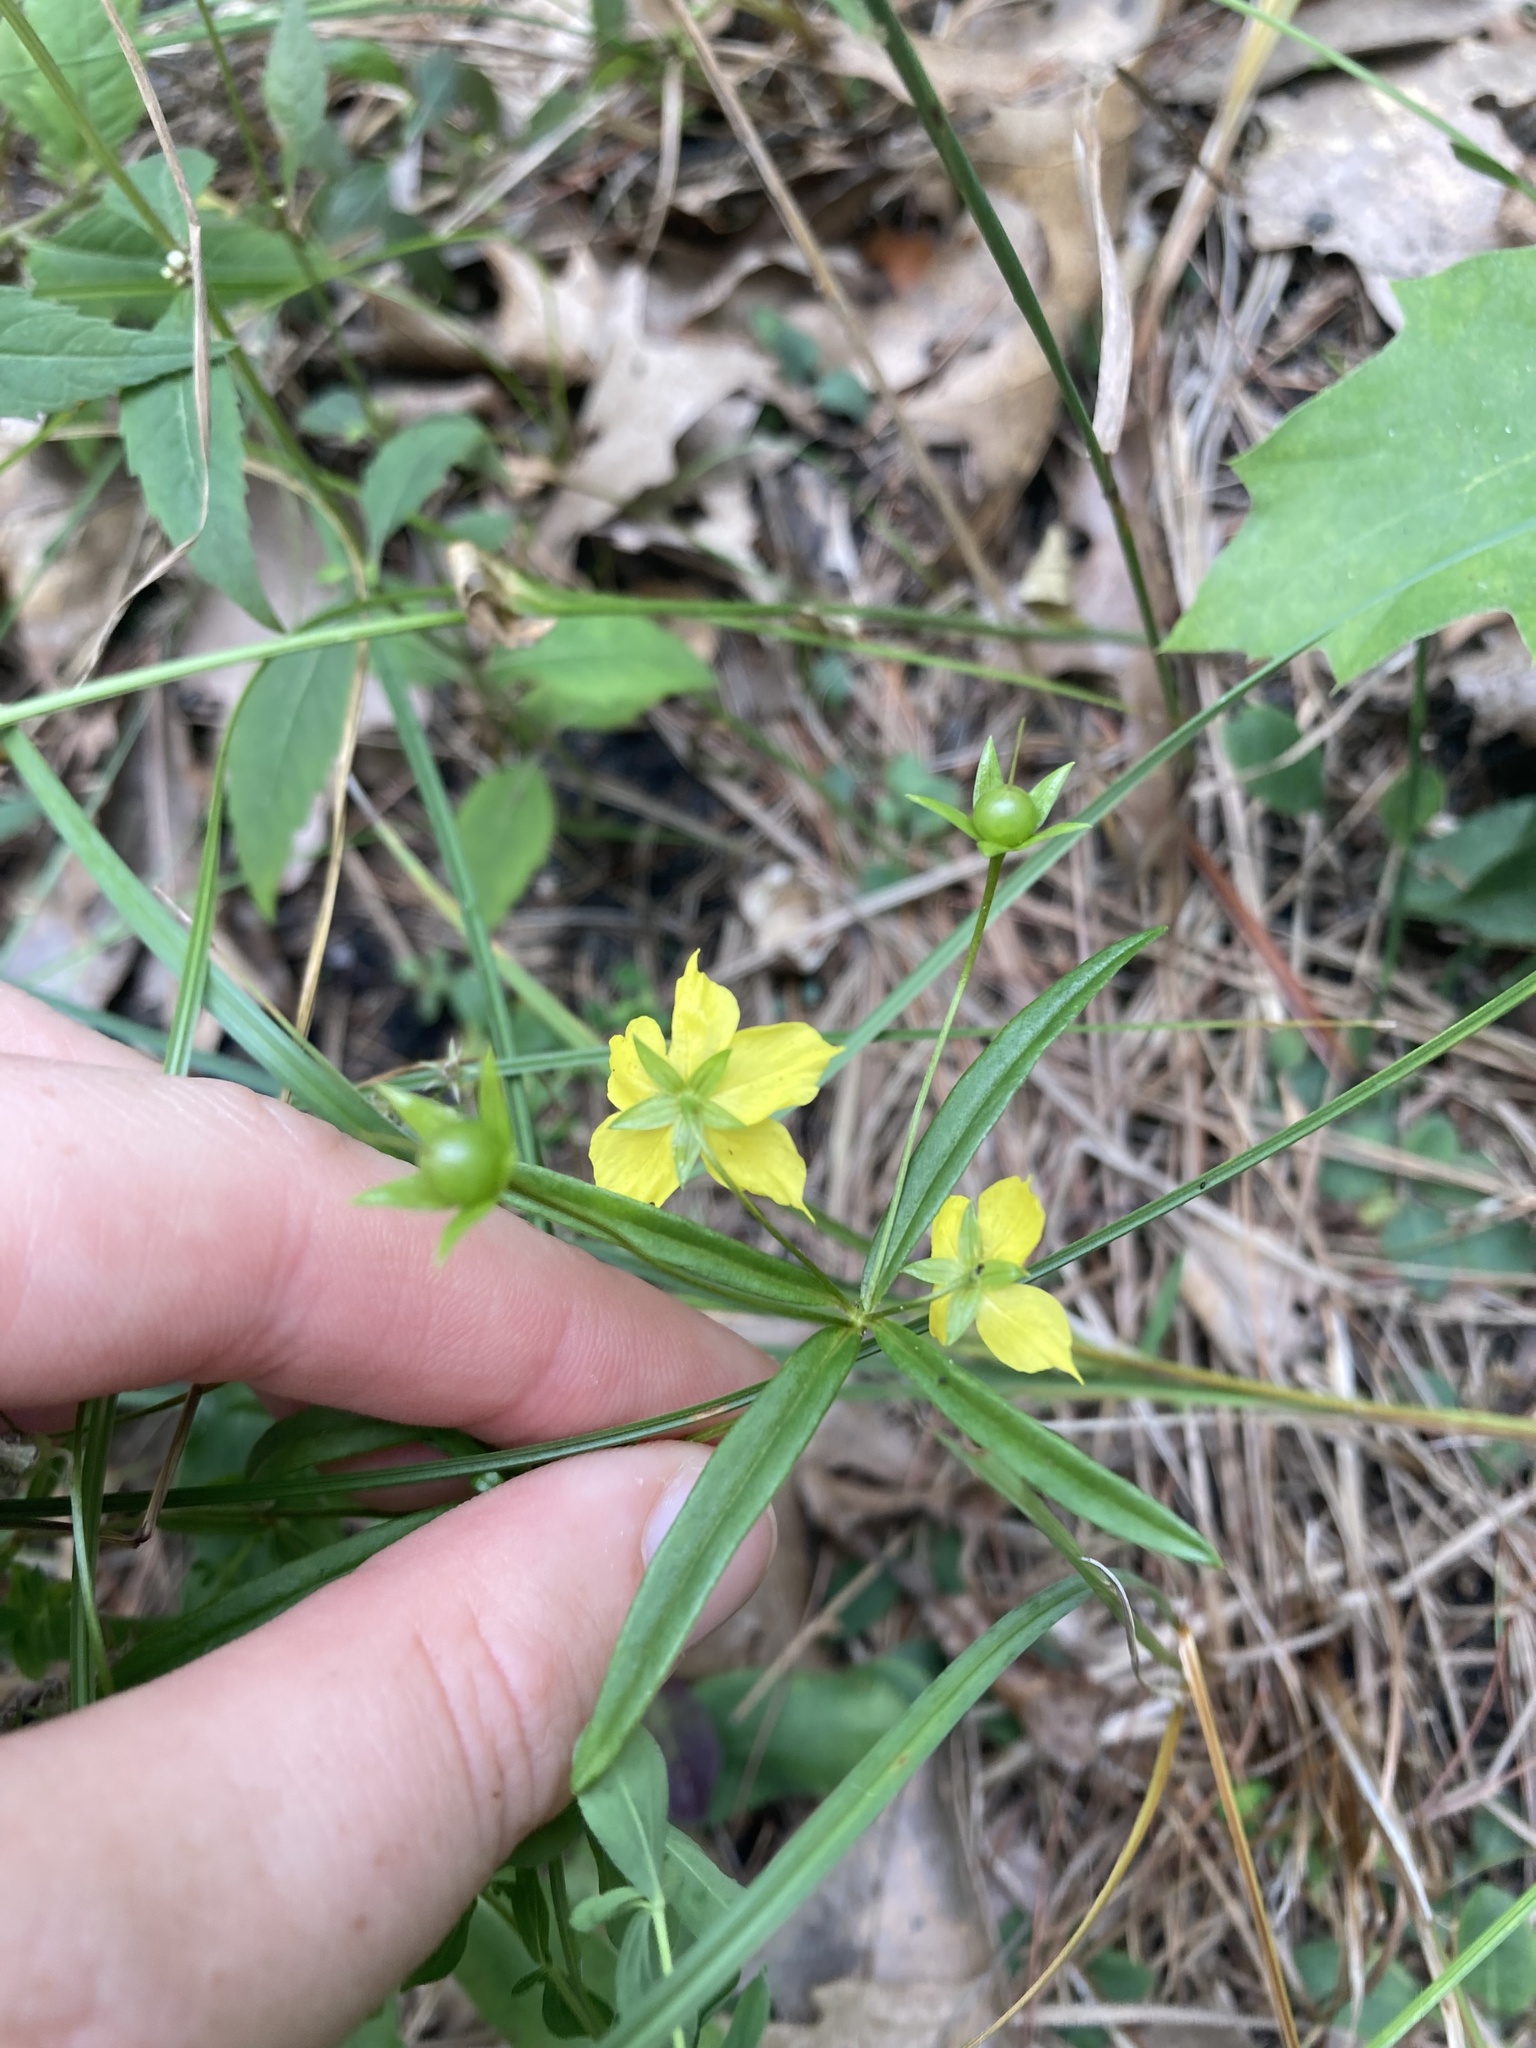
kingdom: Plantae
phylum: Tracheophyta
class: Magnoliopsida
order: Ericales
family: Primulaceae
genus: Lysimachia
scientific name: Lysimachia quadriflora
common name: Four-flowered loosestrife
